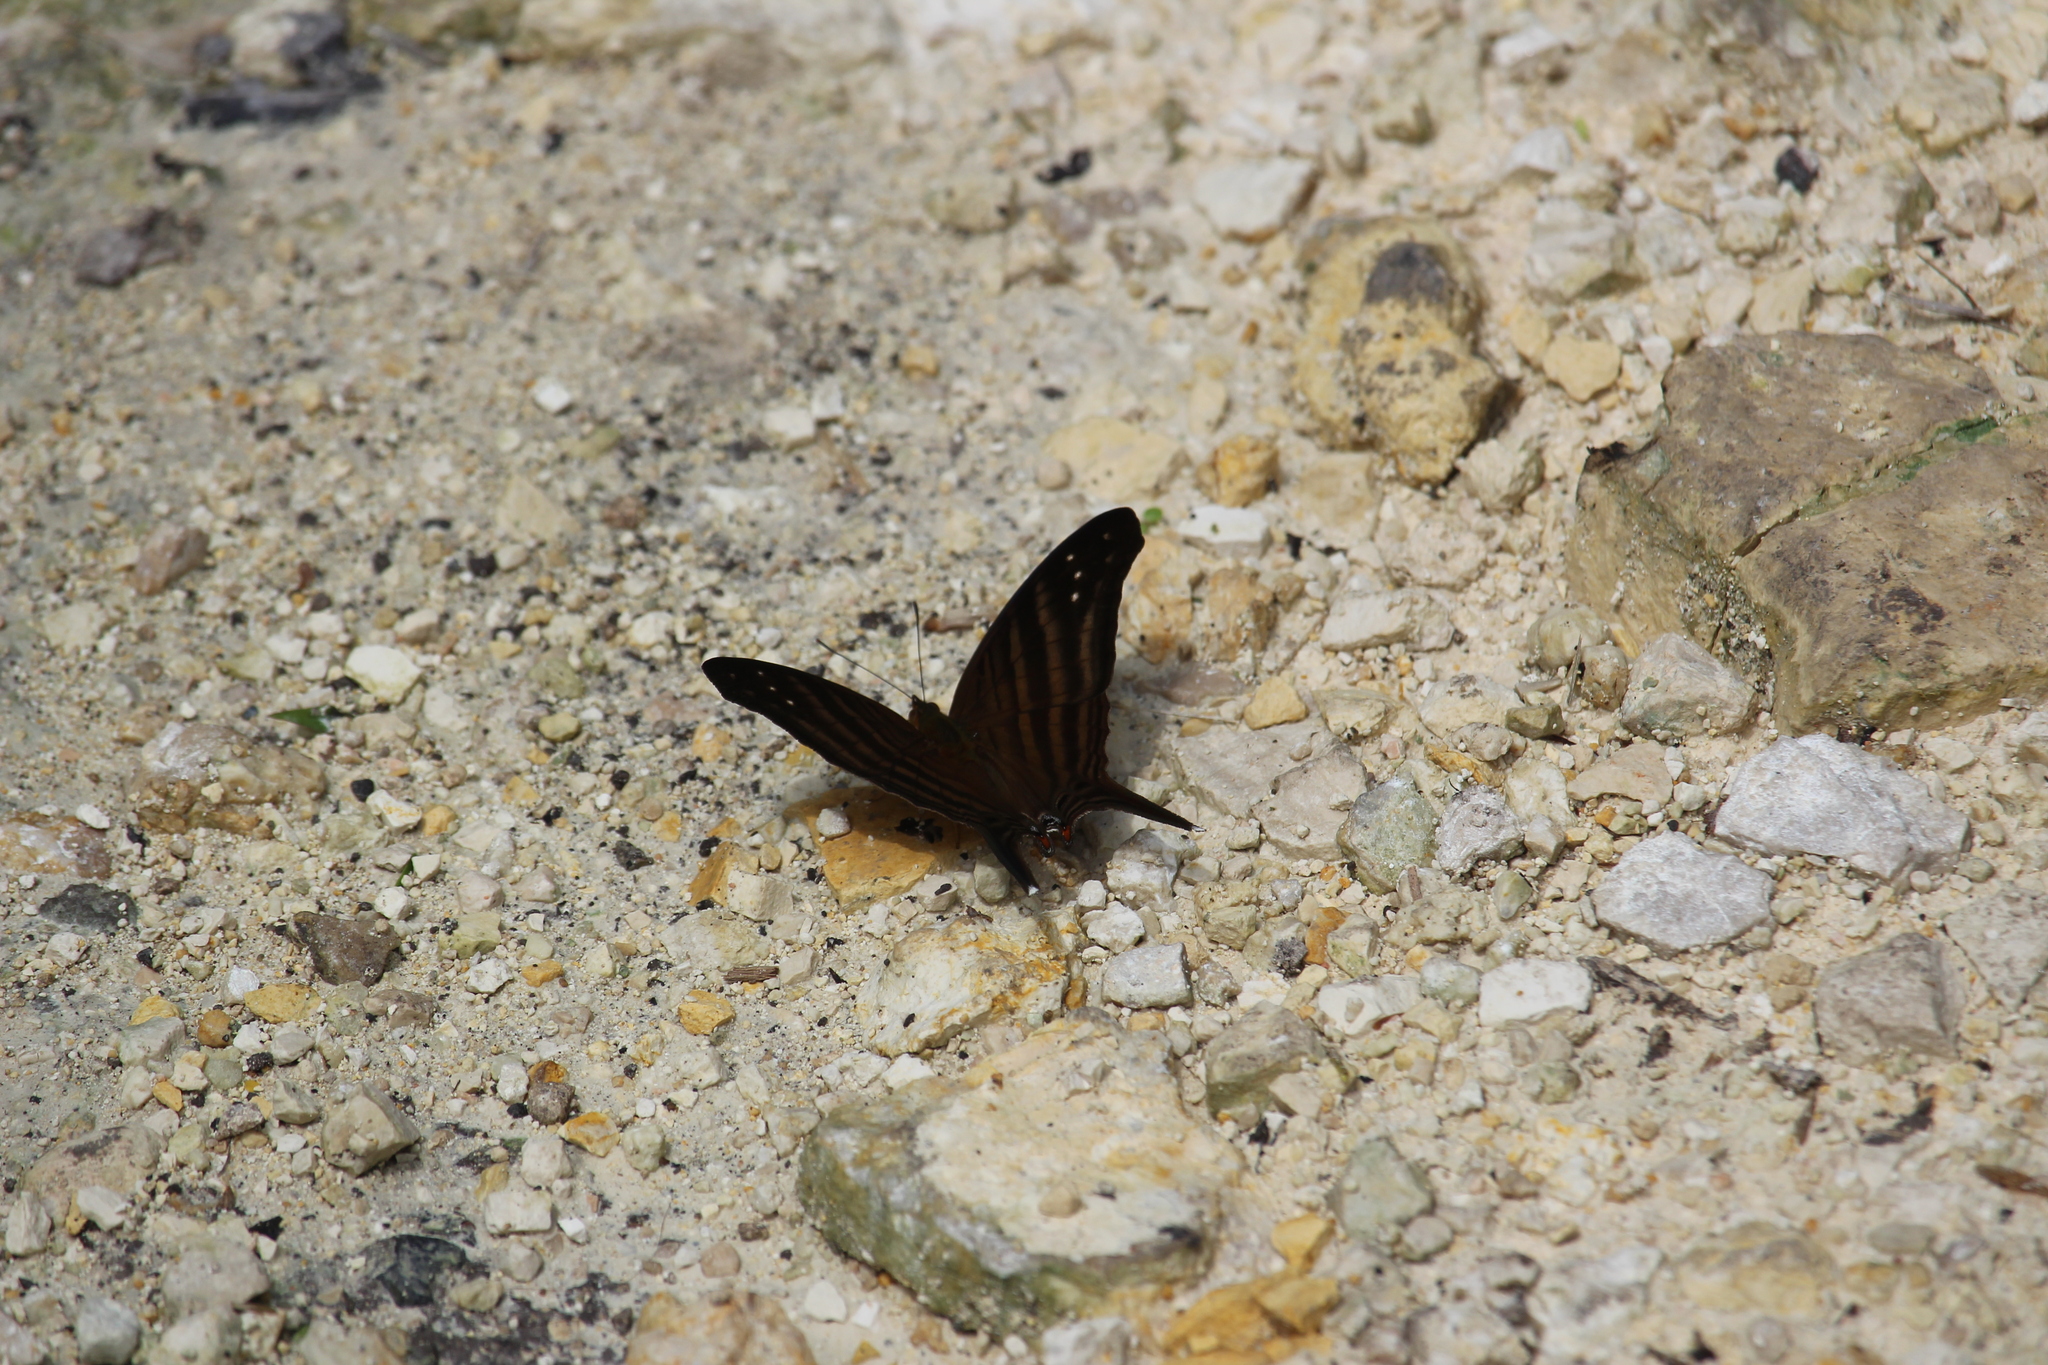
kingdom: Animalia
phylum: Arthropoda
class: Insecta
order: Lepidoptera
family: Nymphalidae
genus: Marpesia
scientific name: Marpesia chiron
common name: Many-banded daggerwing
